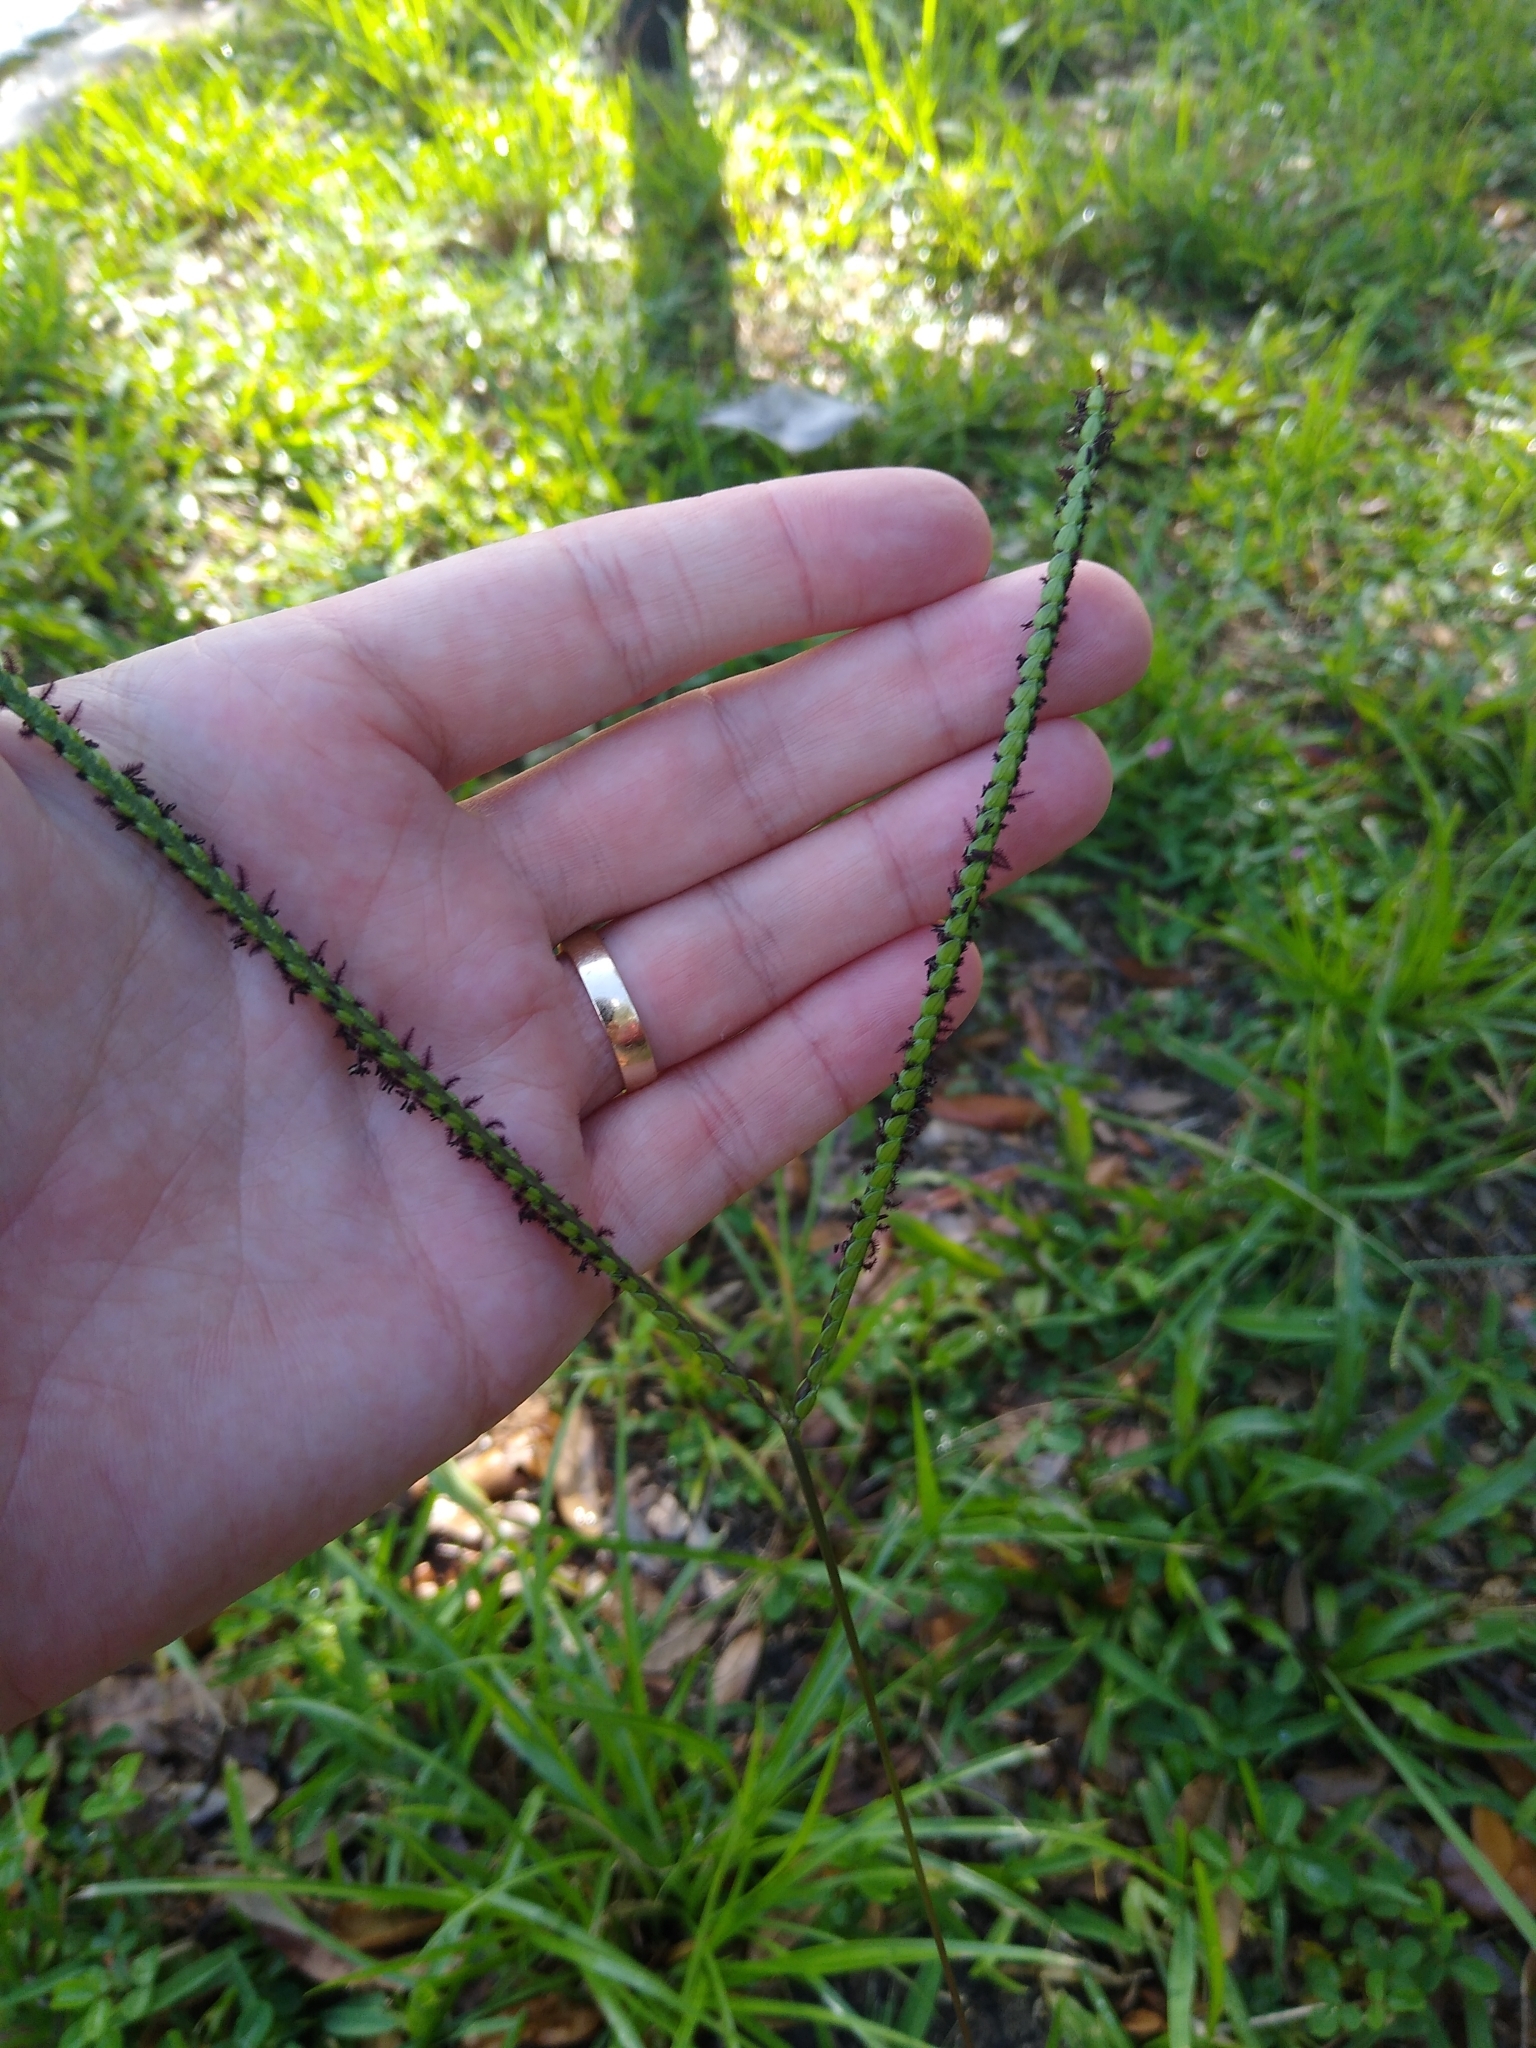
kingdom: Plantae
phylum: Tracheophyta
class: Liliopsida
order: Poales
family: Poaceae
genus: Paspalum
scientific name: Paspalum notatum
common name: Bahiagrass
